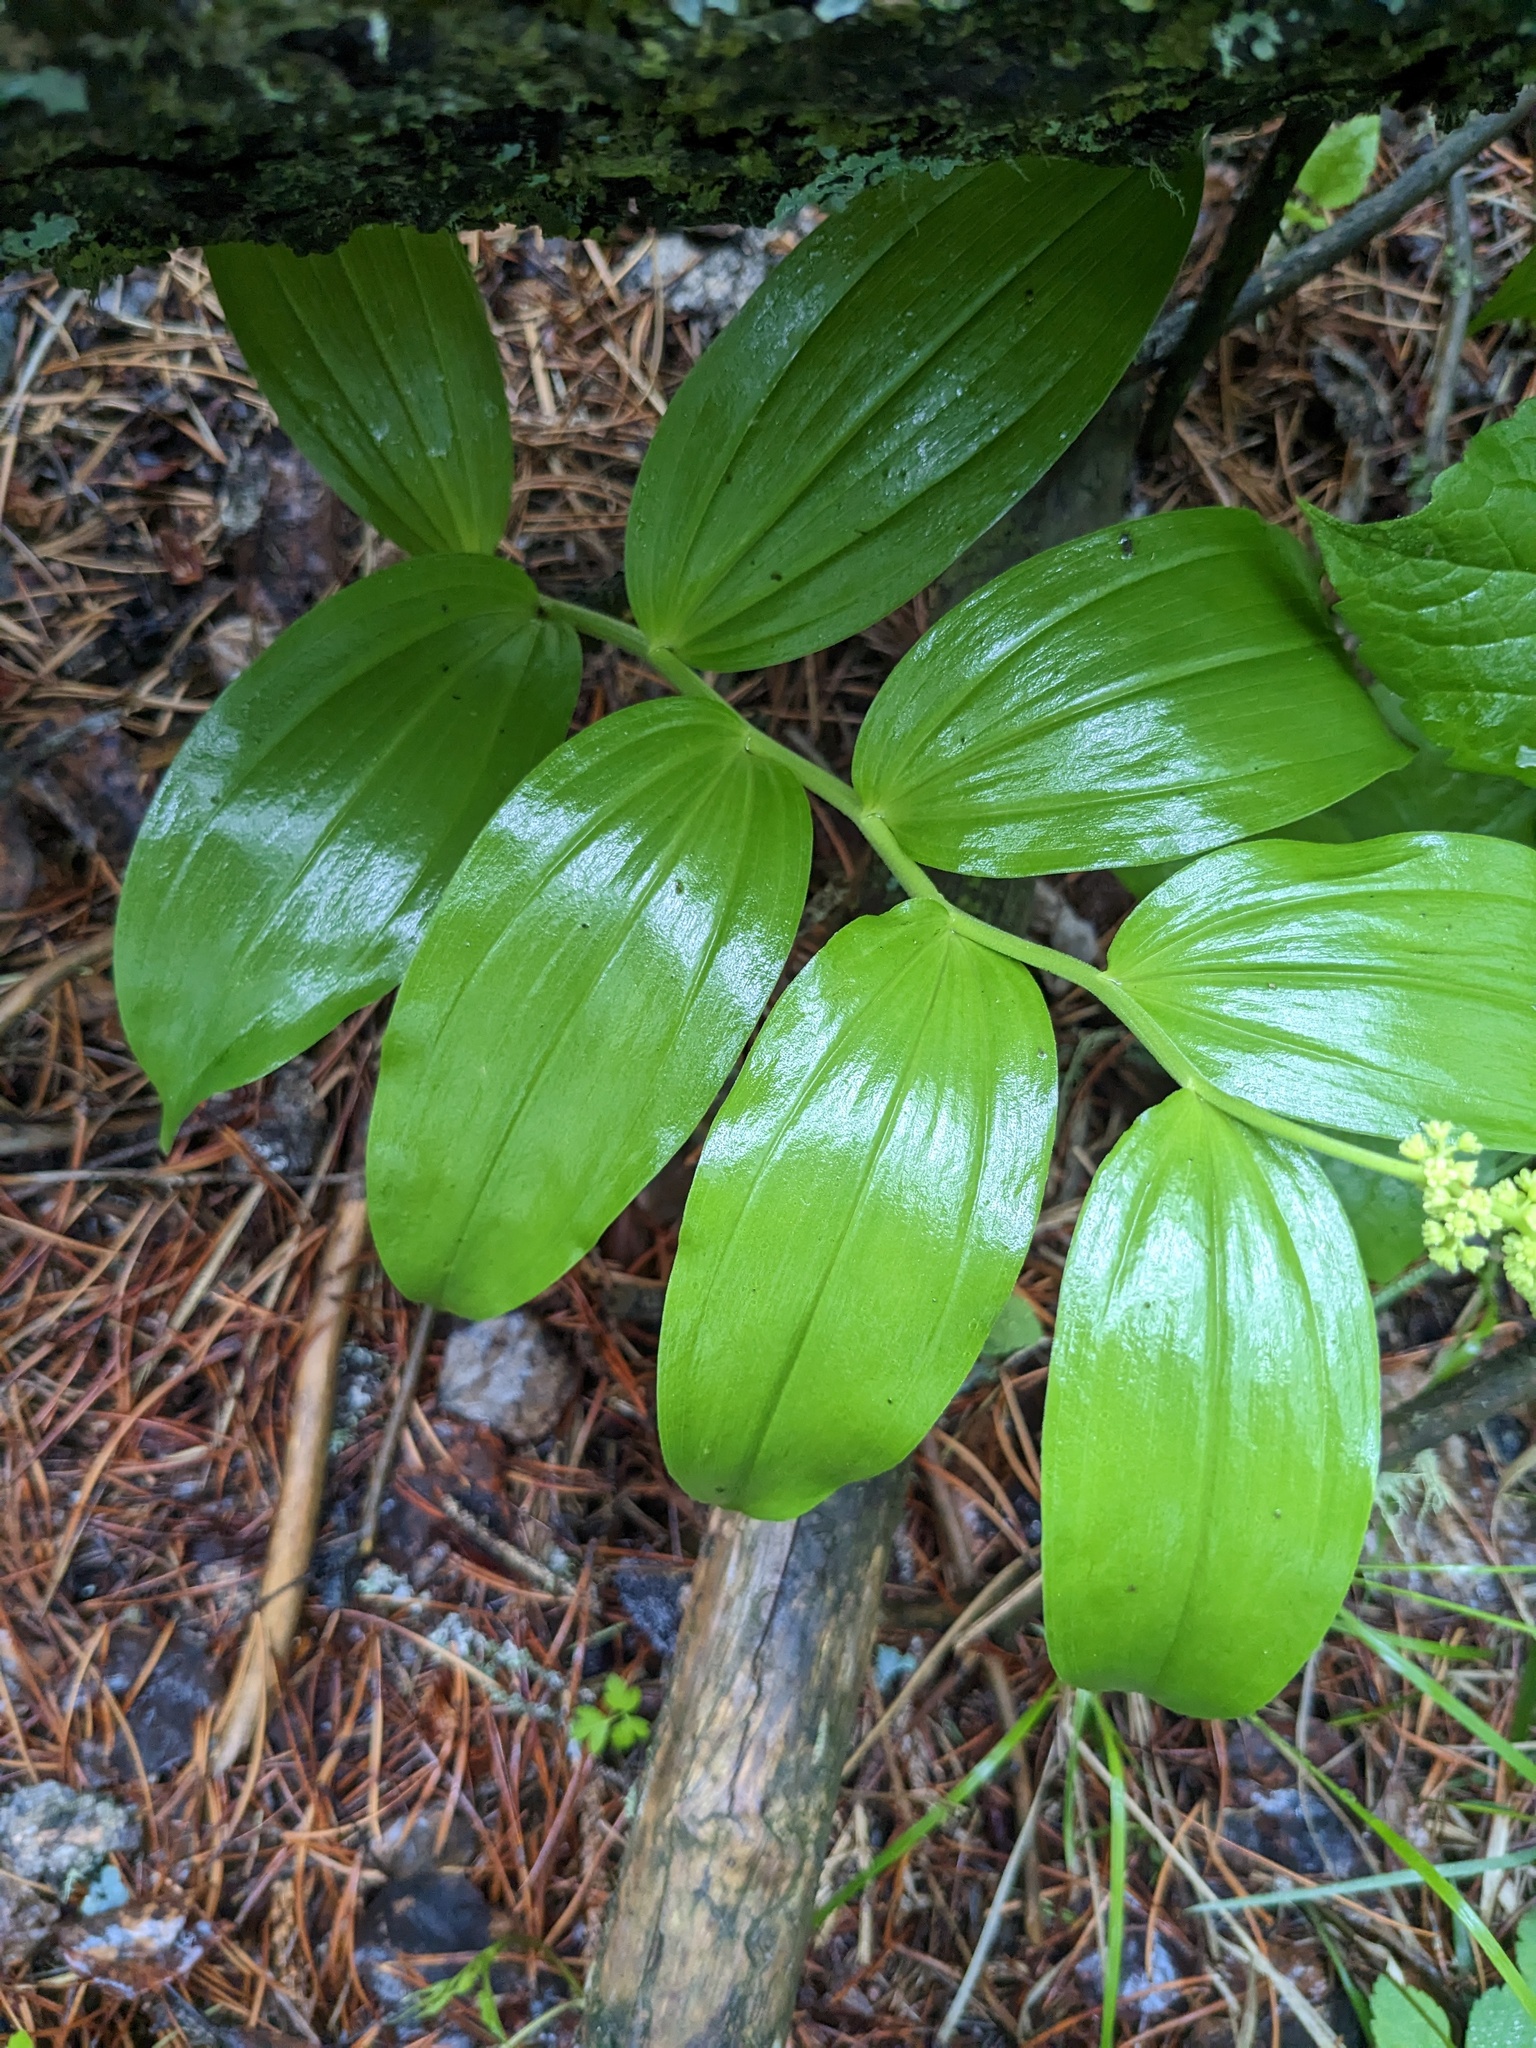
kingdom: Plantae
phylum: Tracheophyta
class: Liliopsida
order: Asparagales
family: Asparagaceae
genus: Maianthemum
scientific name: Maianthemum racemosum
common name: False spikenard
